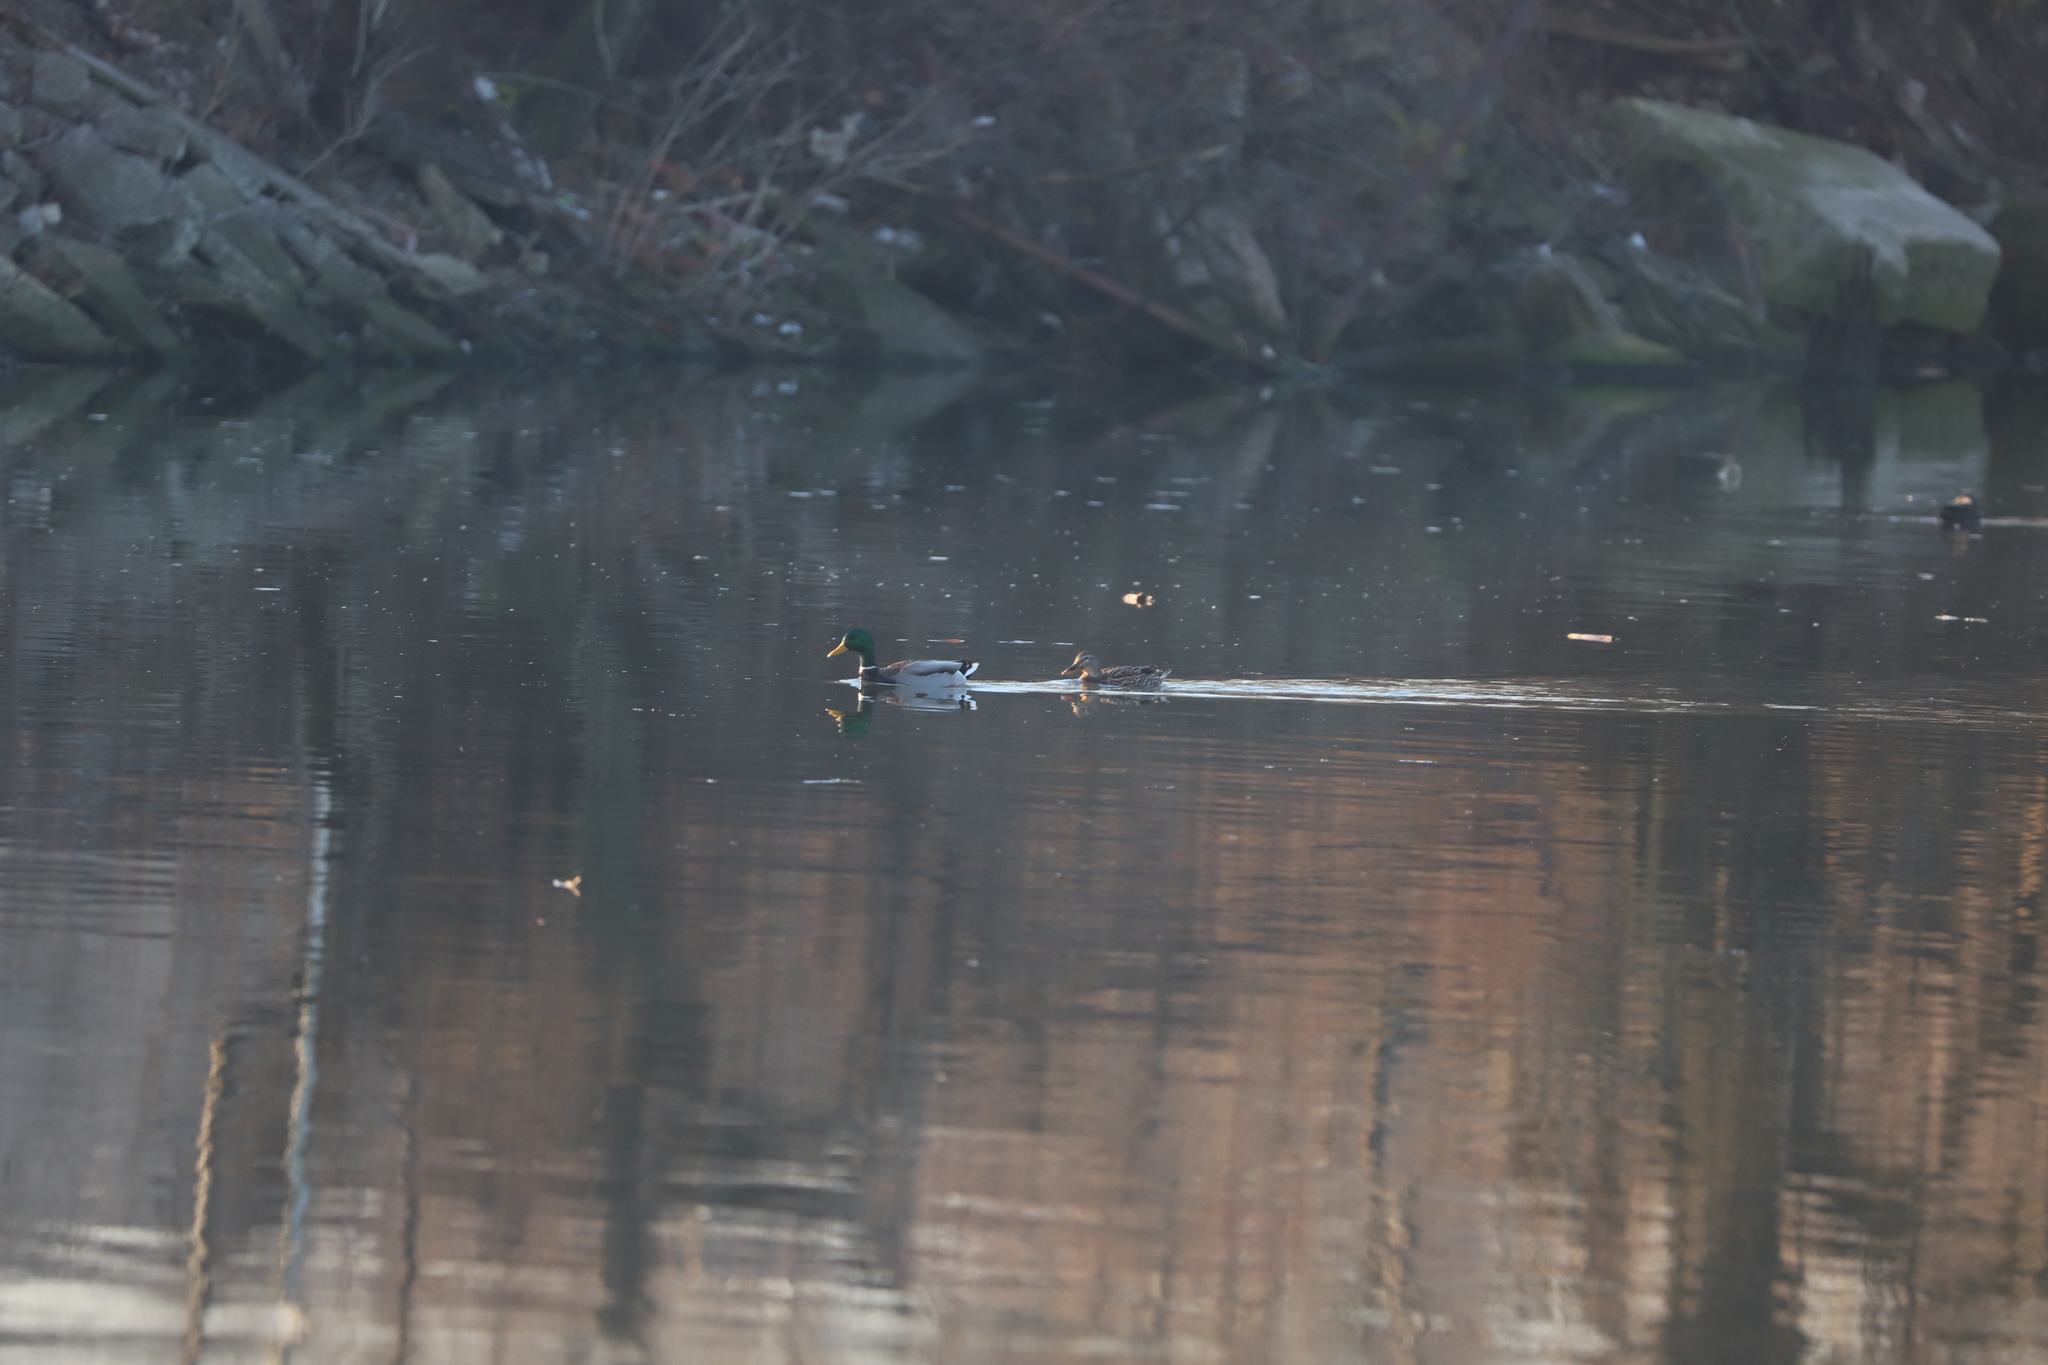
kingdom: Animalia
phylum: Chordata
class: Aves
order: Anseriformes
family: Anatidae
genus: Anas
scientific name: Anas platyrhynchos
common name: Mallard
